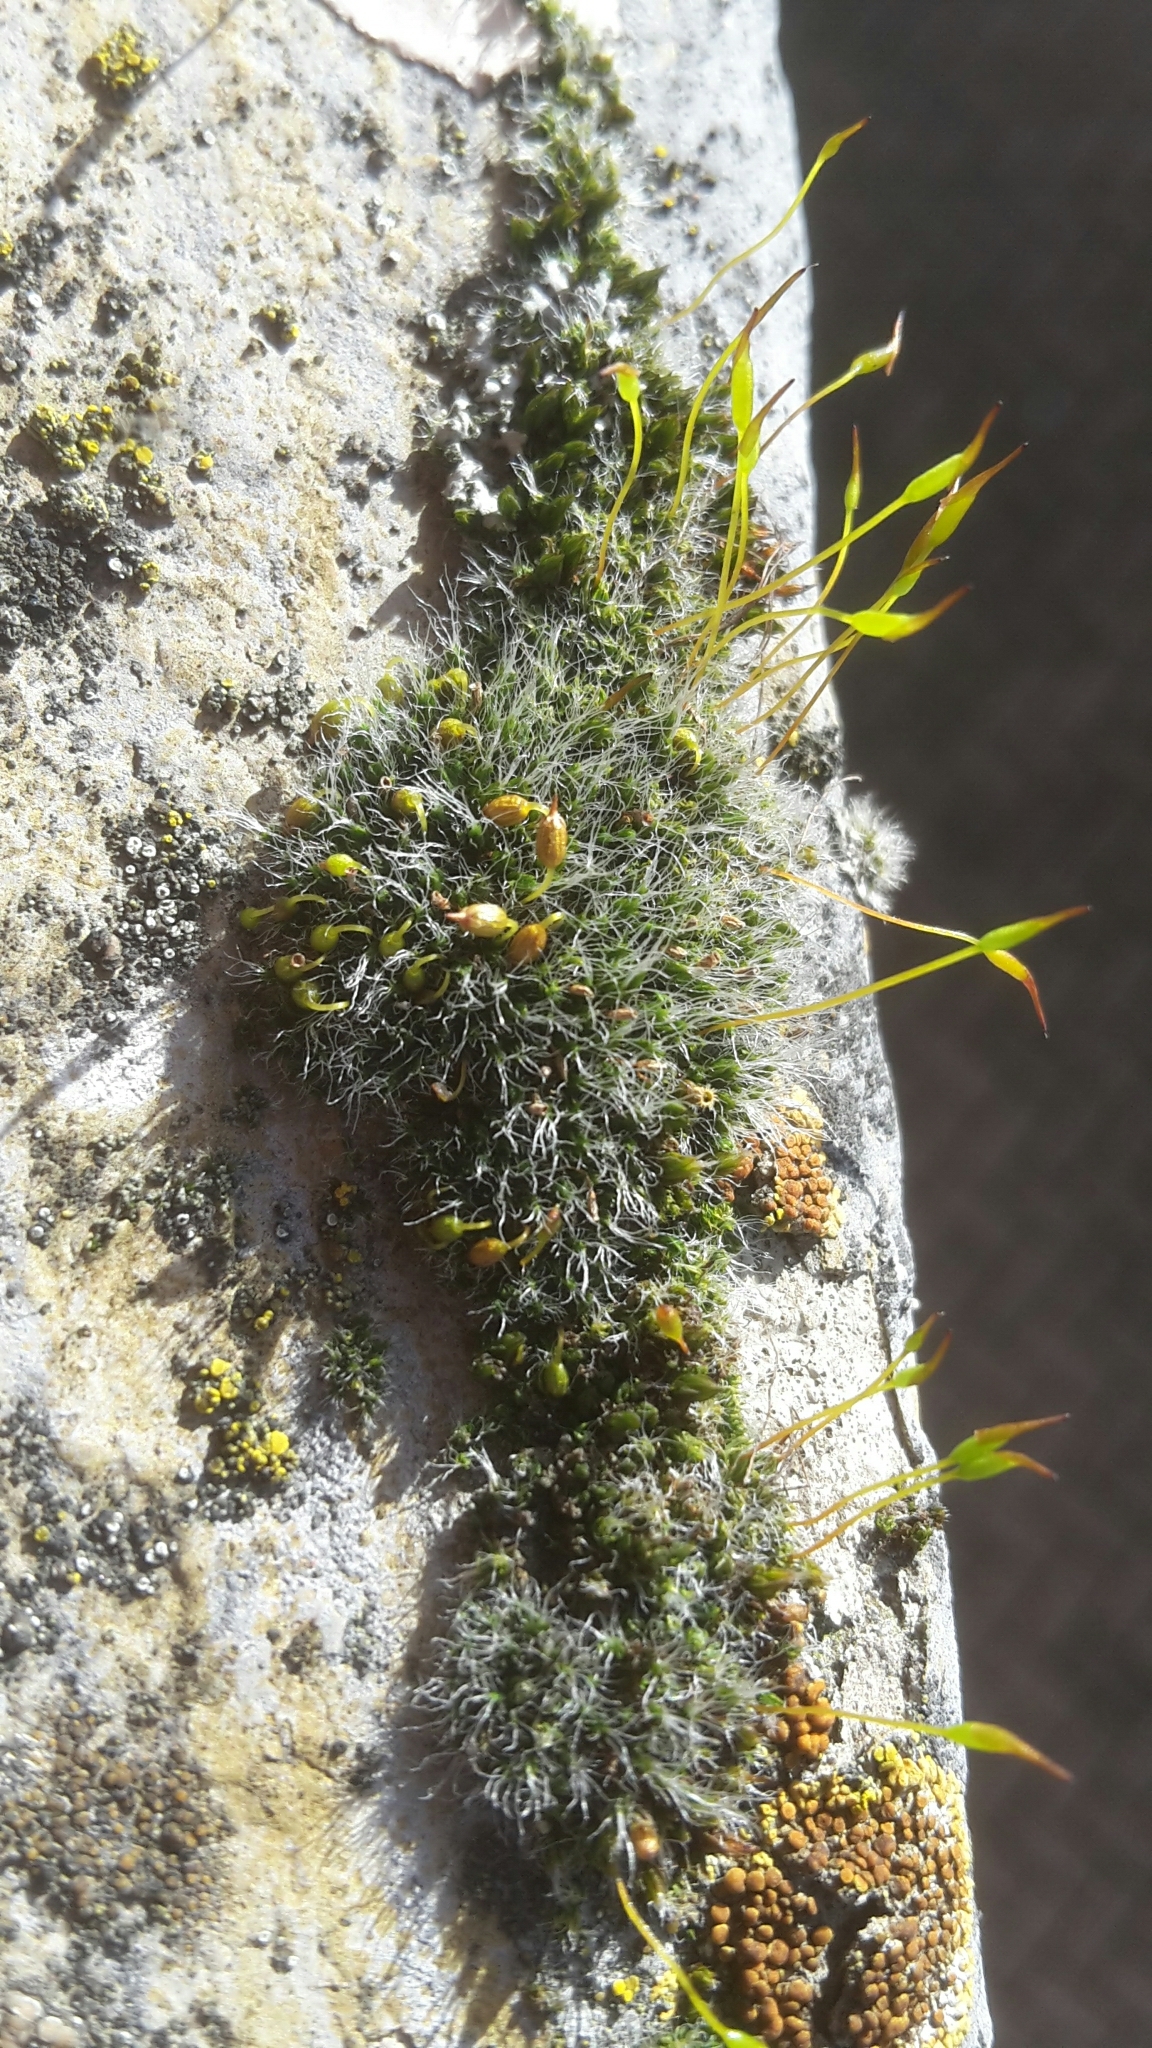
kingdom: Plantae
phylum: Bryophyta
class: Bryopsida
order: Pottiales
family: Pottiaceae
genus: Tortula
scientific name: Tortula muralis
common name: Wall screw-moss
